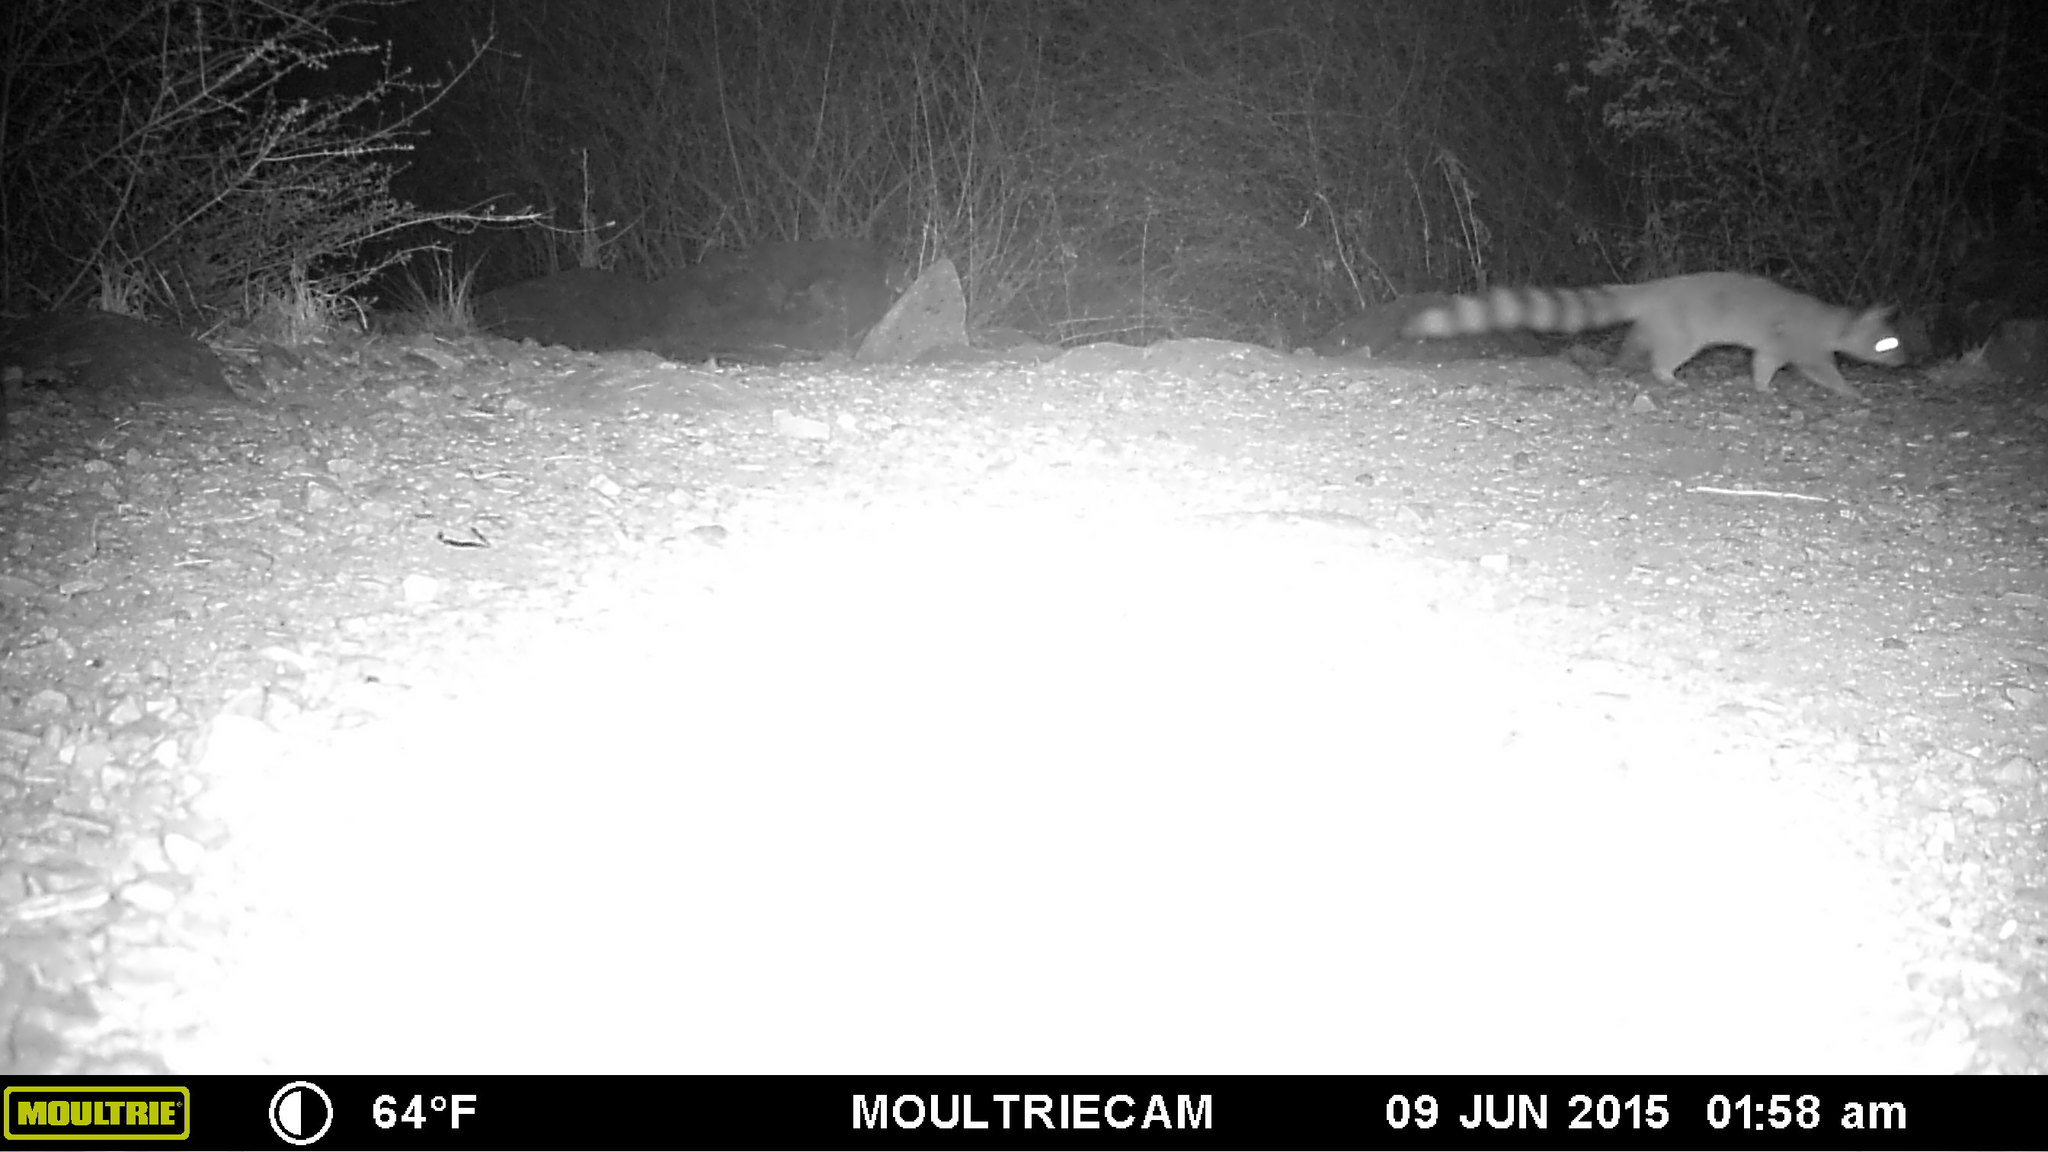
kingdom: Animalia
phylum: Chordata
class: Mammalia
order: Carnivora
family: Procyonidae
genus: Bassariscus
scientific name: Bassariscus astutus
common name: Ringtail
